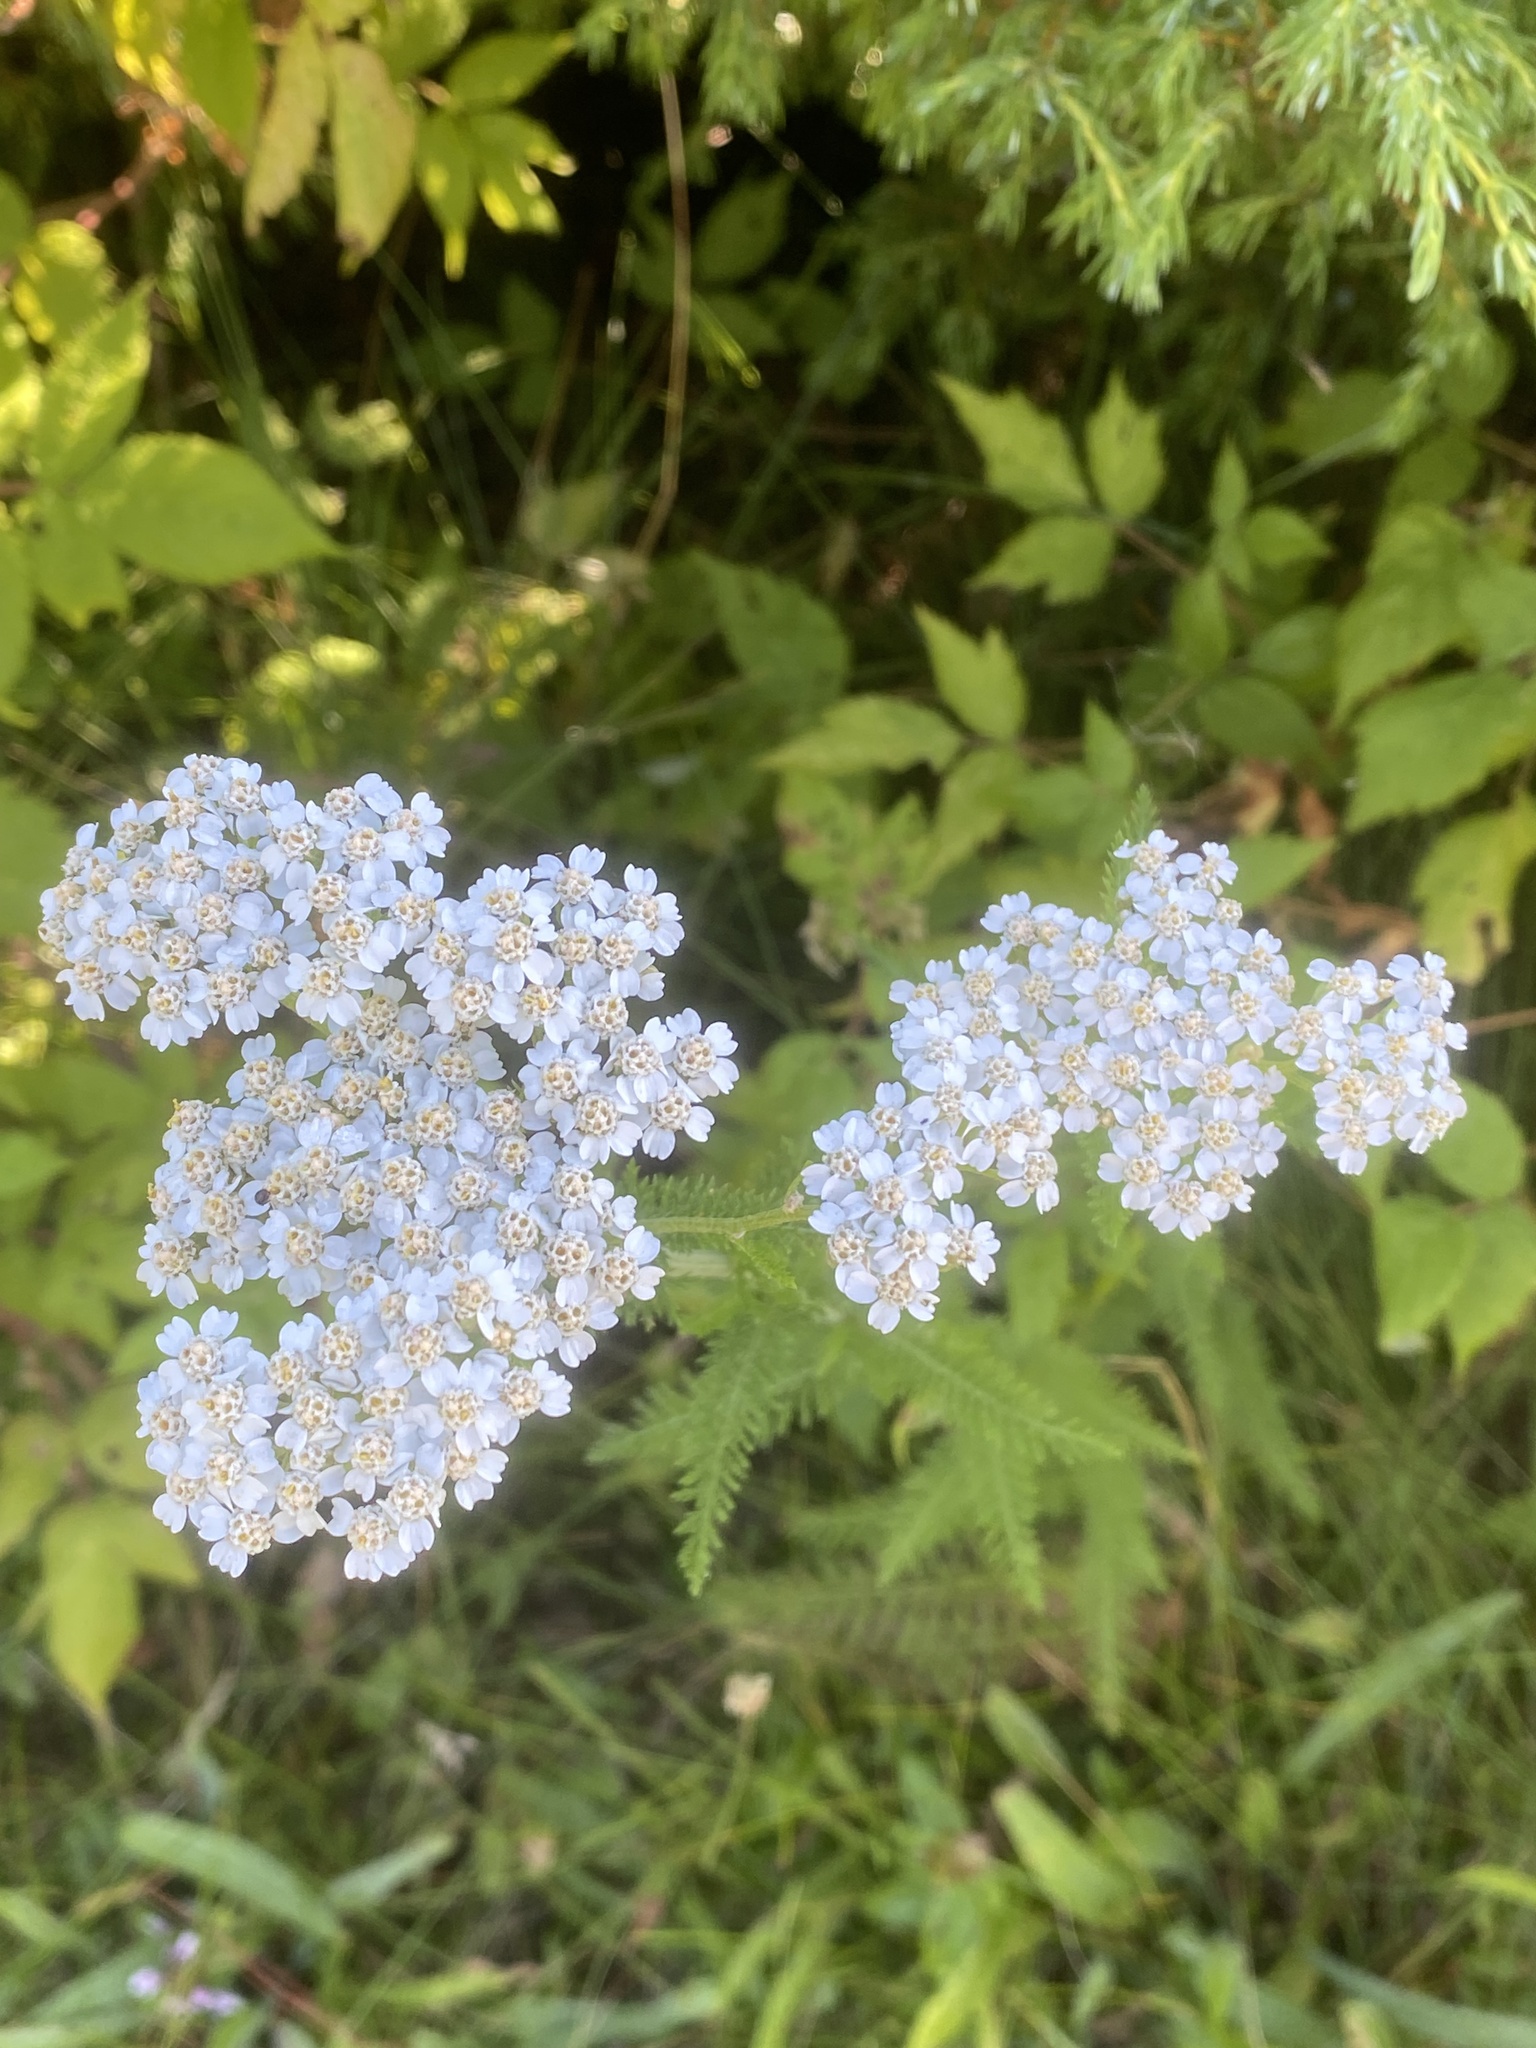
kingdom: Plantae
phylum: Tracheophyta
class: Magnoliopsida
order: Asterales
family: Asteraceae
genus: Achillea
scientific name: Achillea millefolium
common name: Yarrow
